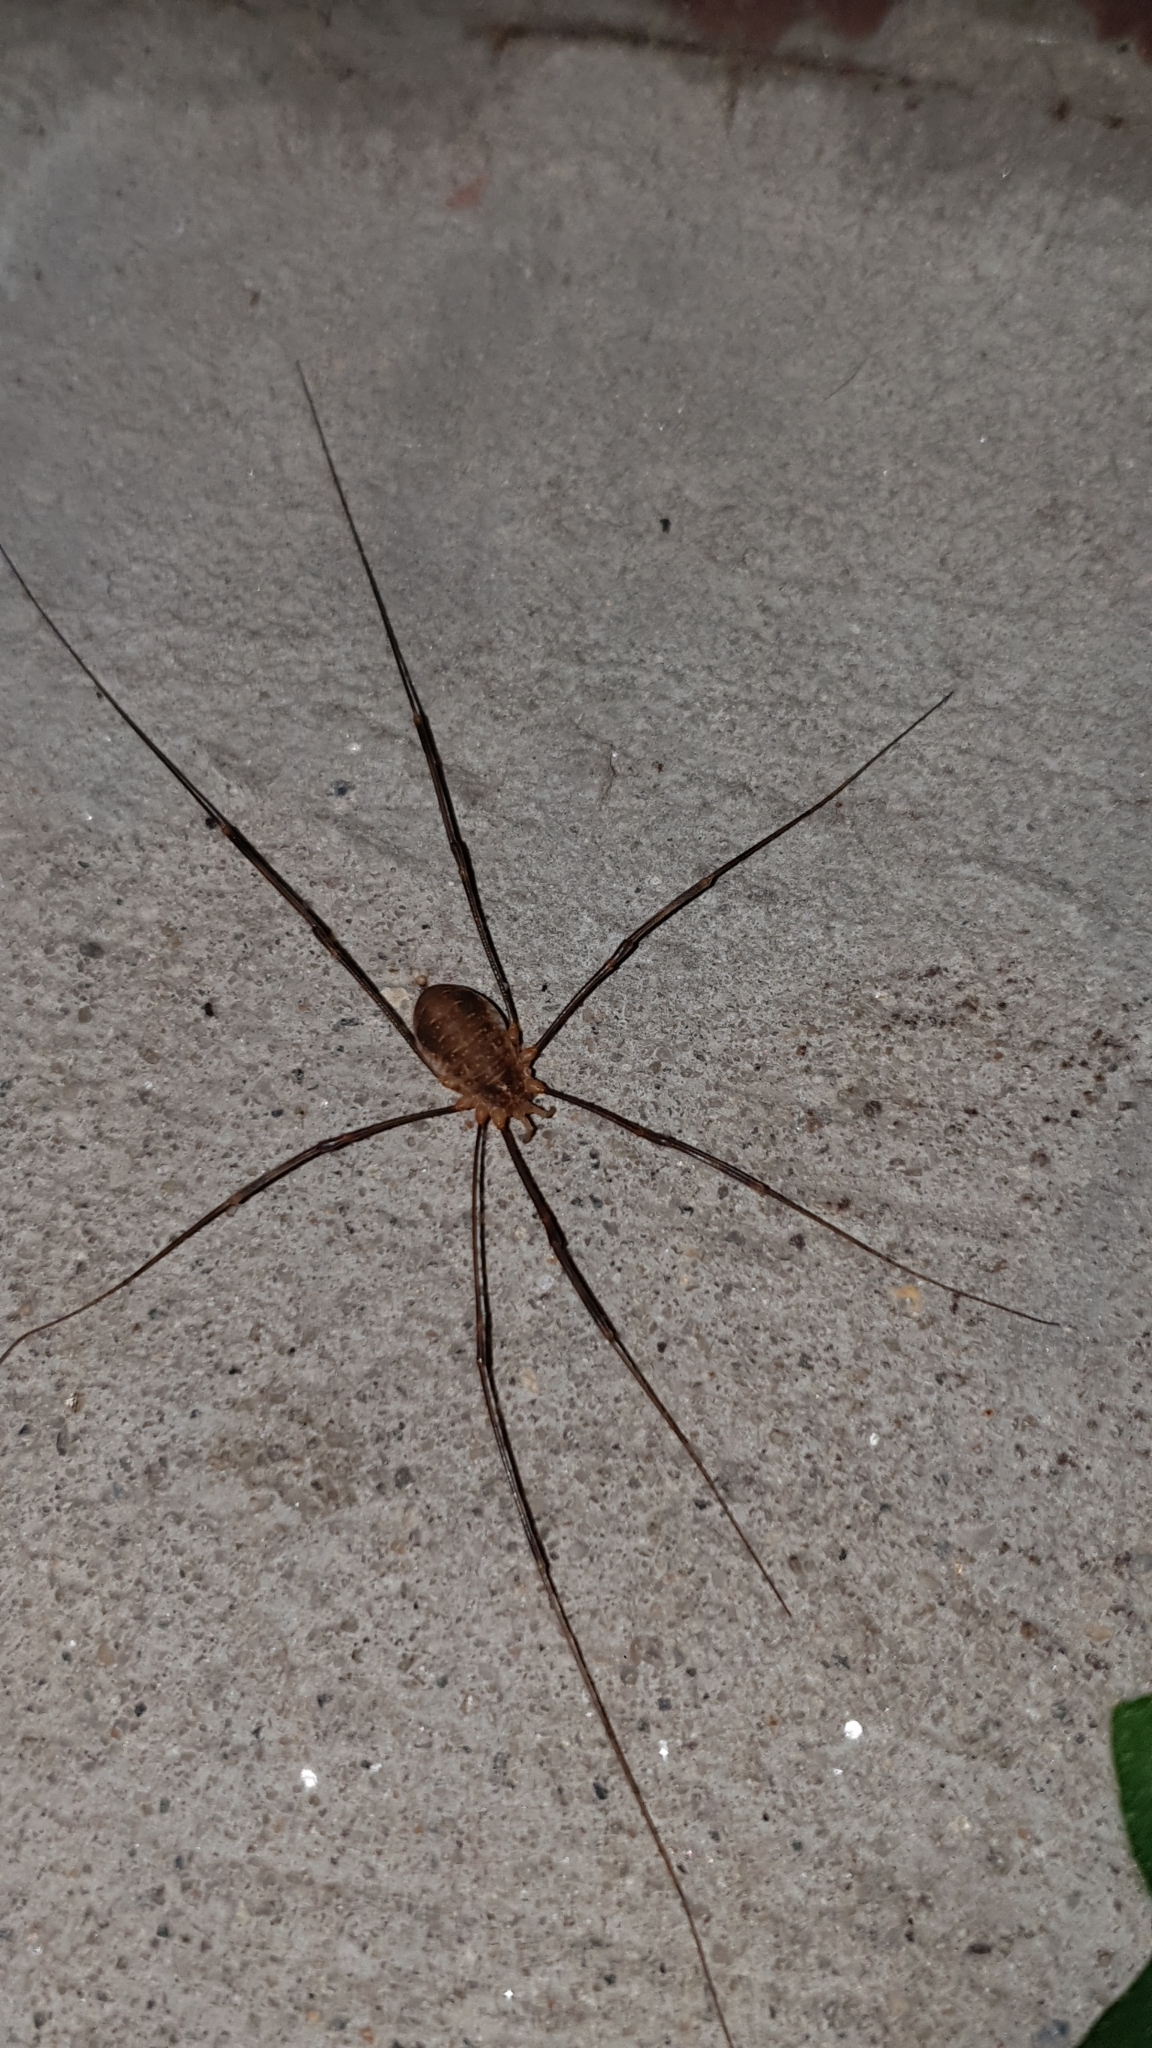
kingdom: Animalia
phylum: Arthropoda
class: Arachnida
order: Opiliones
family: Phalangiidae
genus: Opilio
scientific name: Opilio canestrinii
